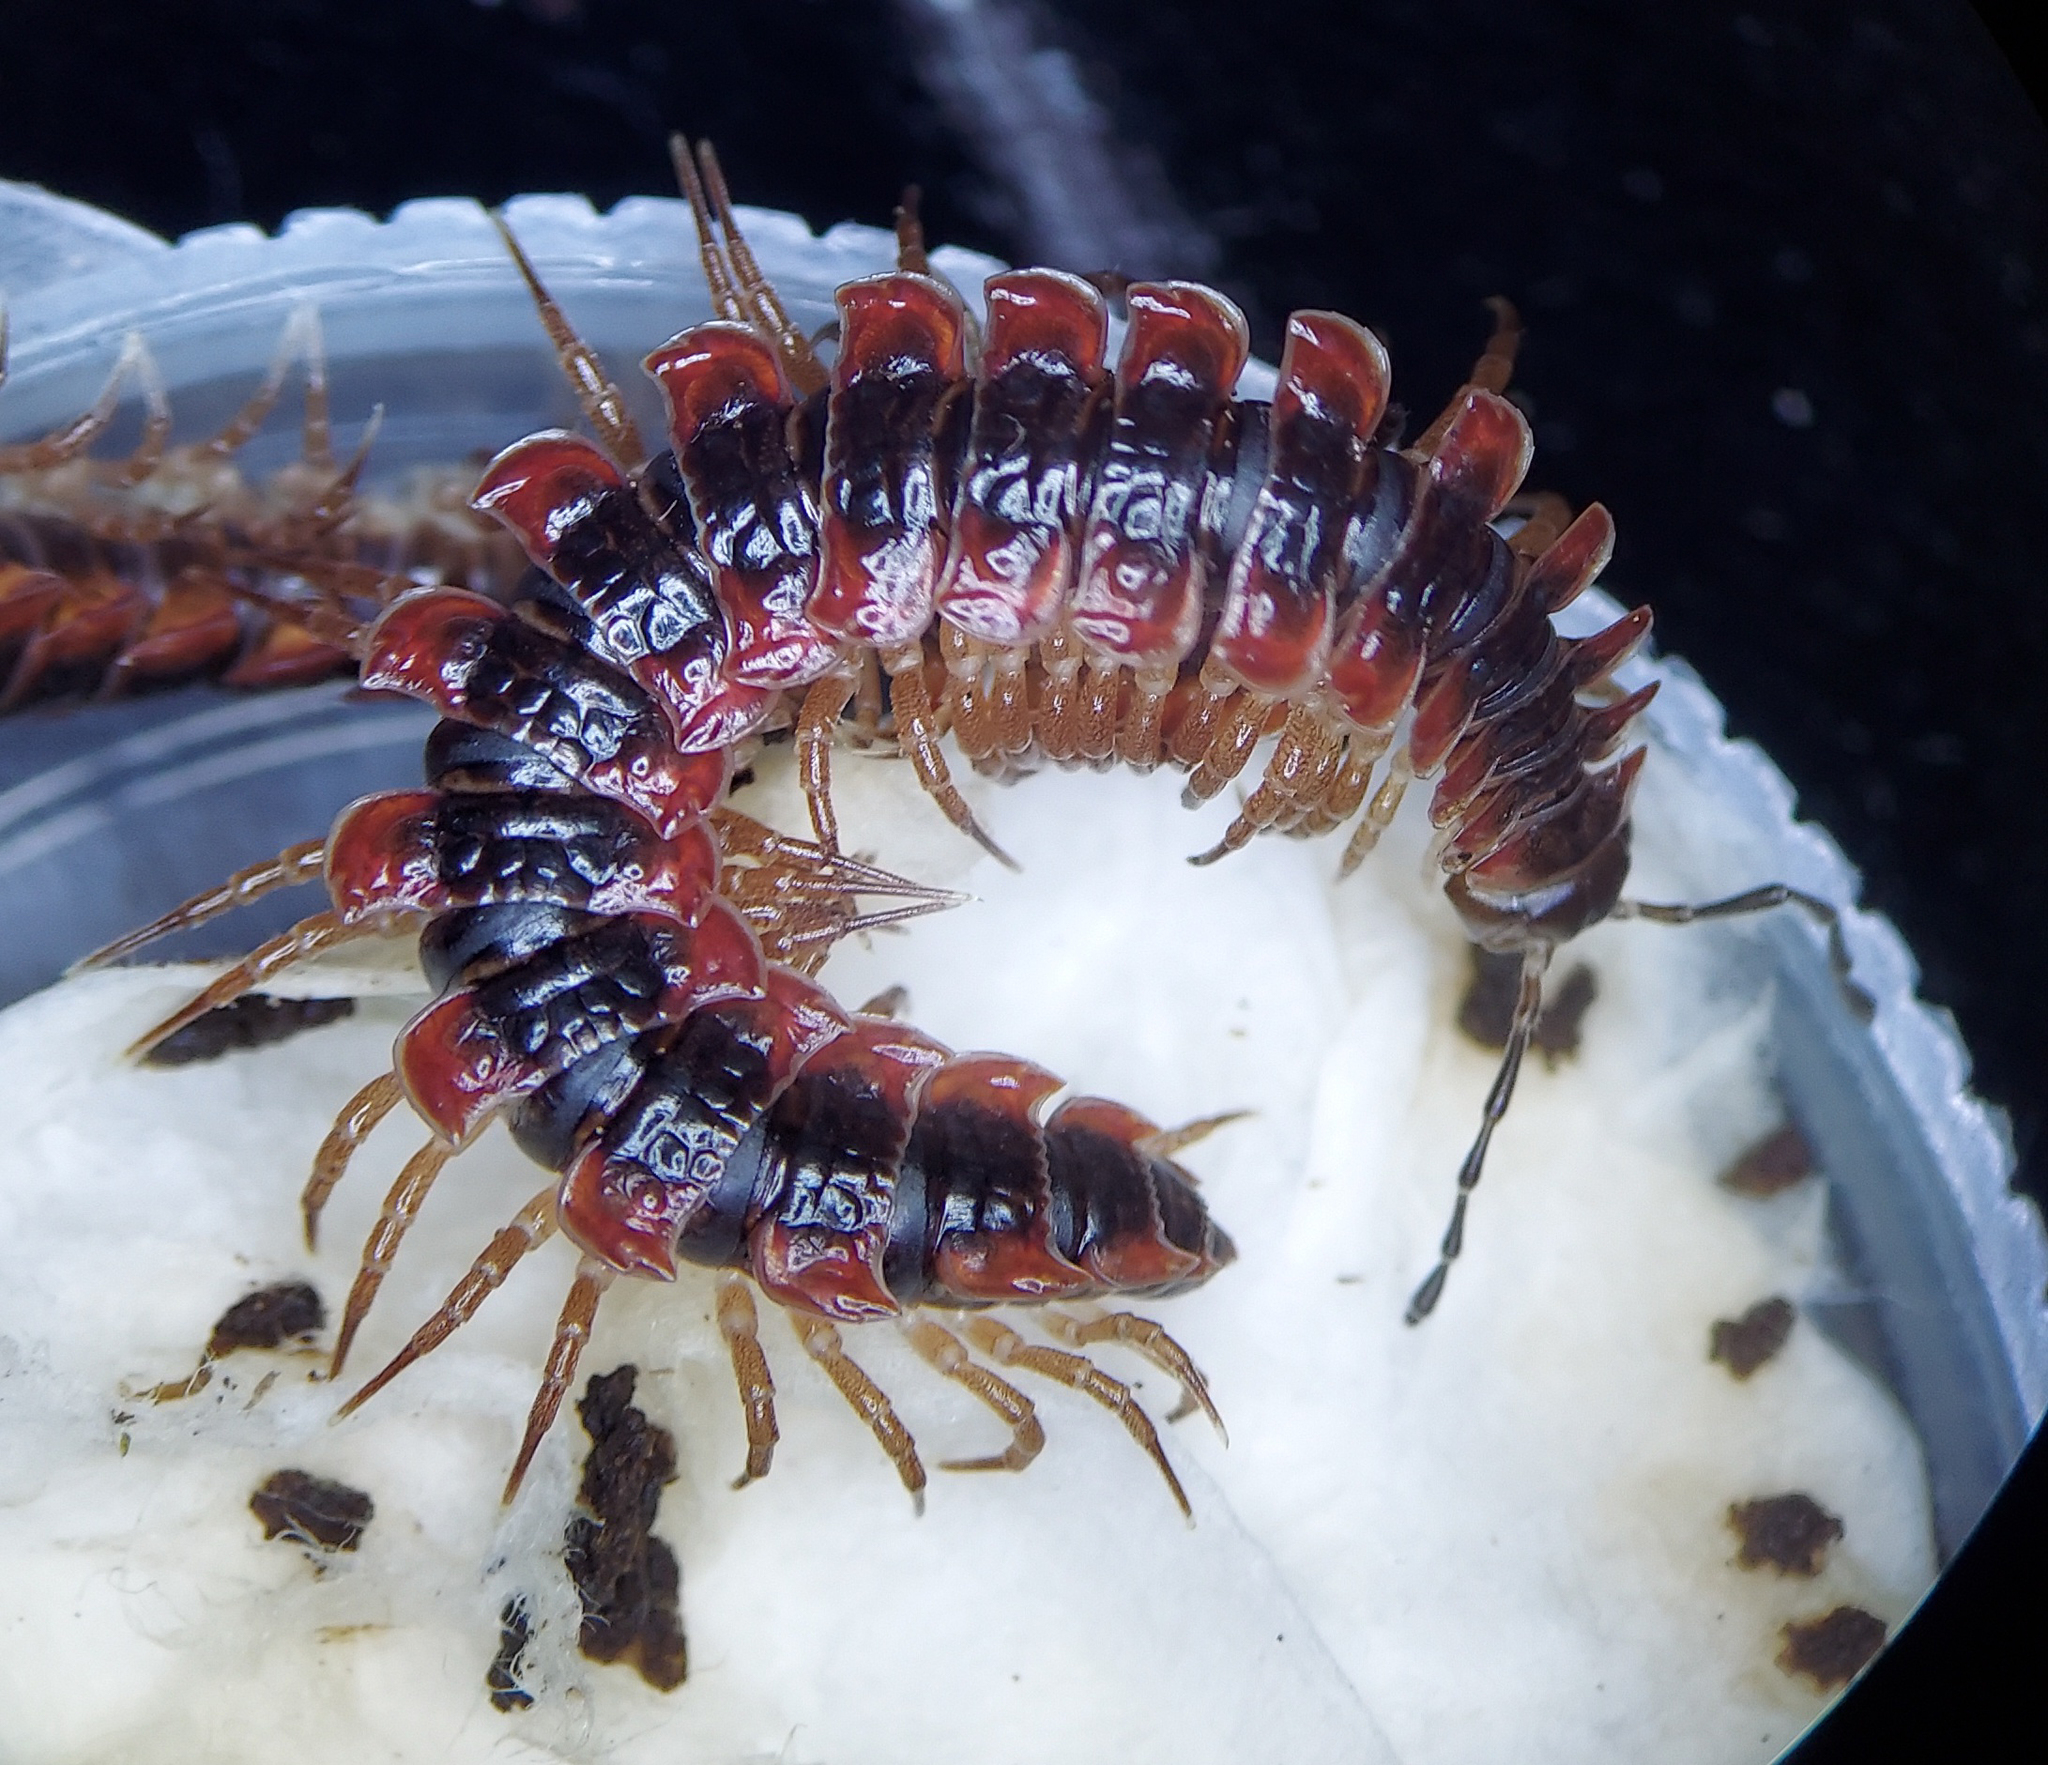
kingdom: Animalia
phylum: Arthropoda
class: Diplopoda
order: Polydesmida
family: Polydesmidae
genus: Pseudopolydesmus
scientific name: Pseudopolydesmus canadensis
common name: Canadian flat-back millipede
